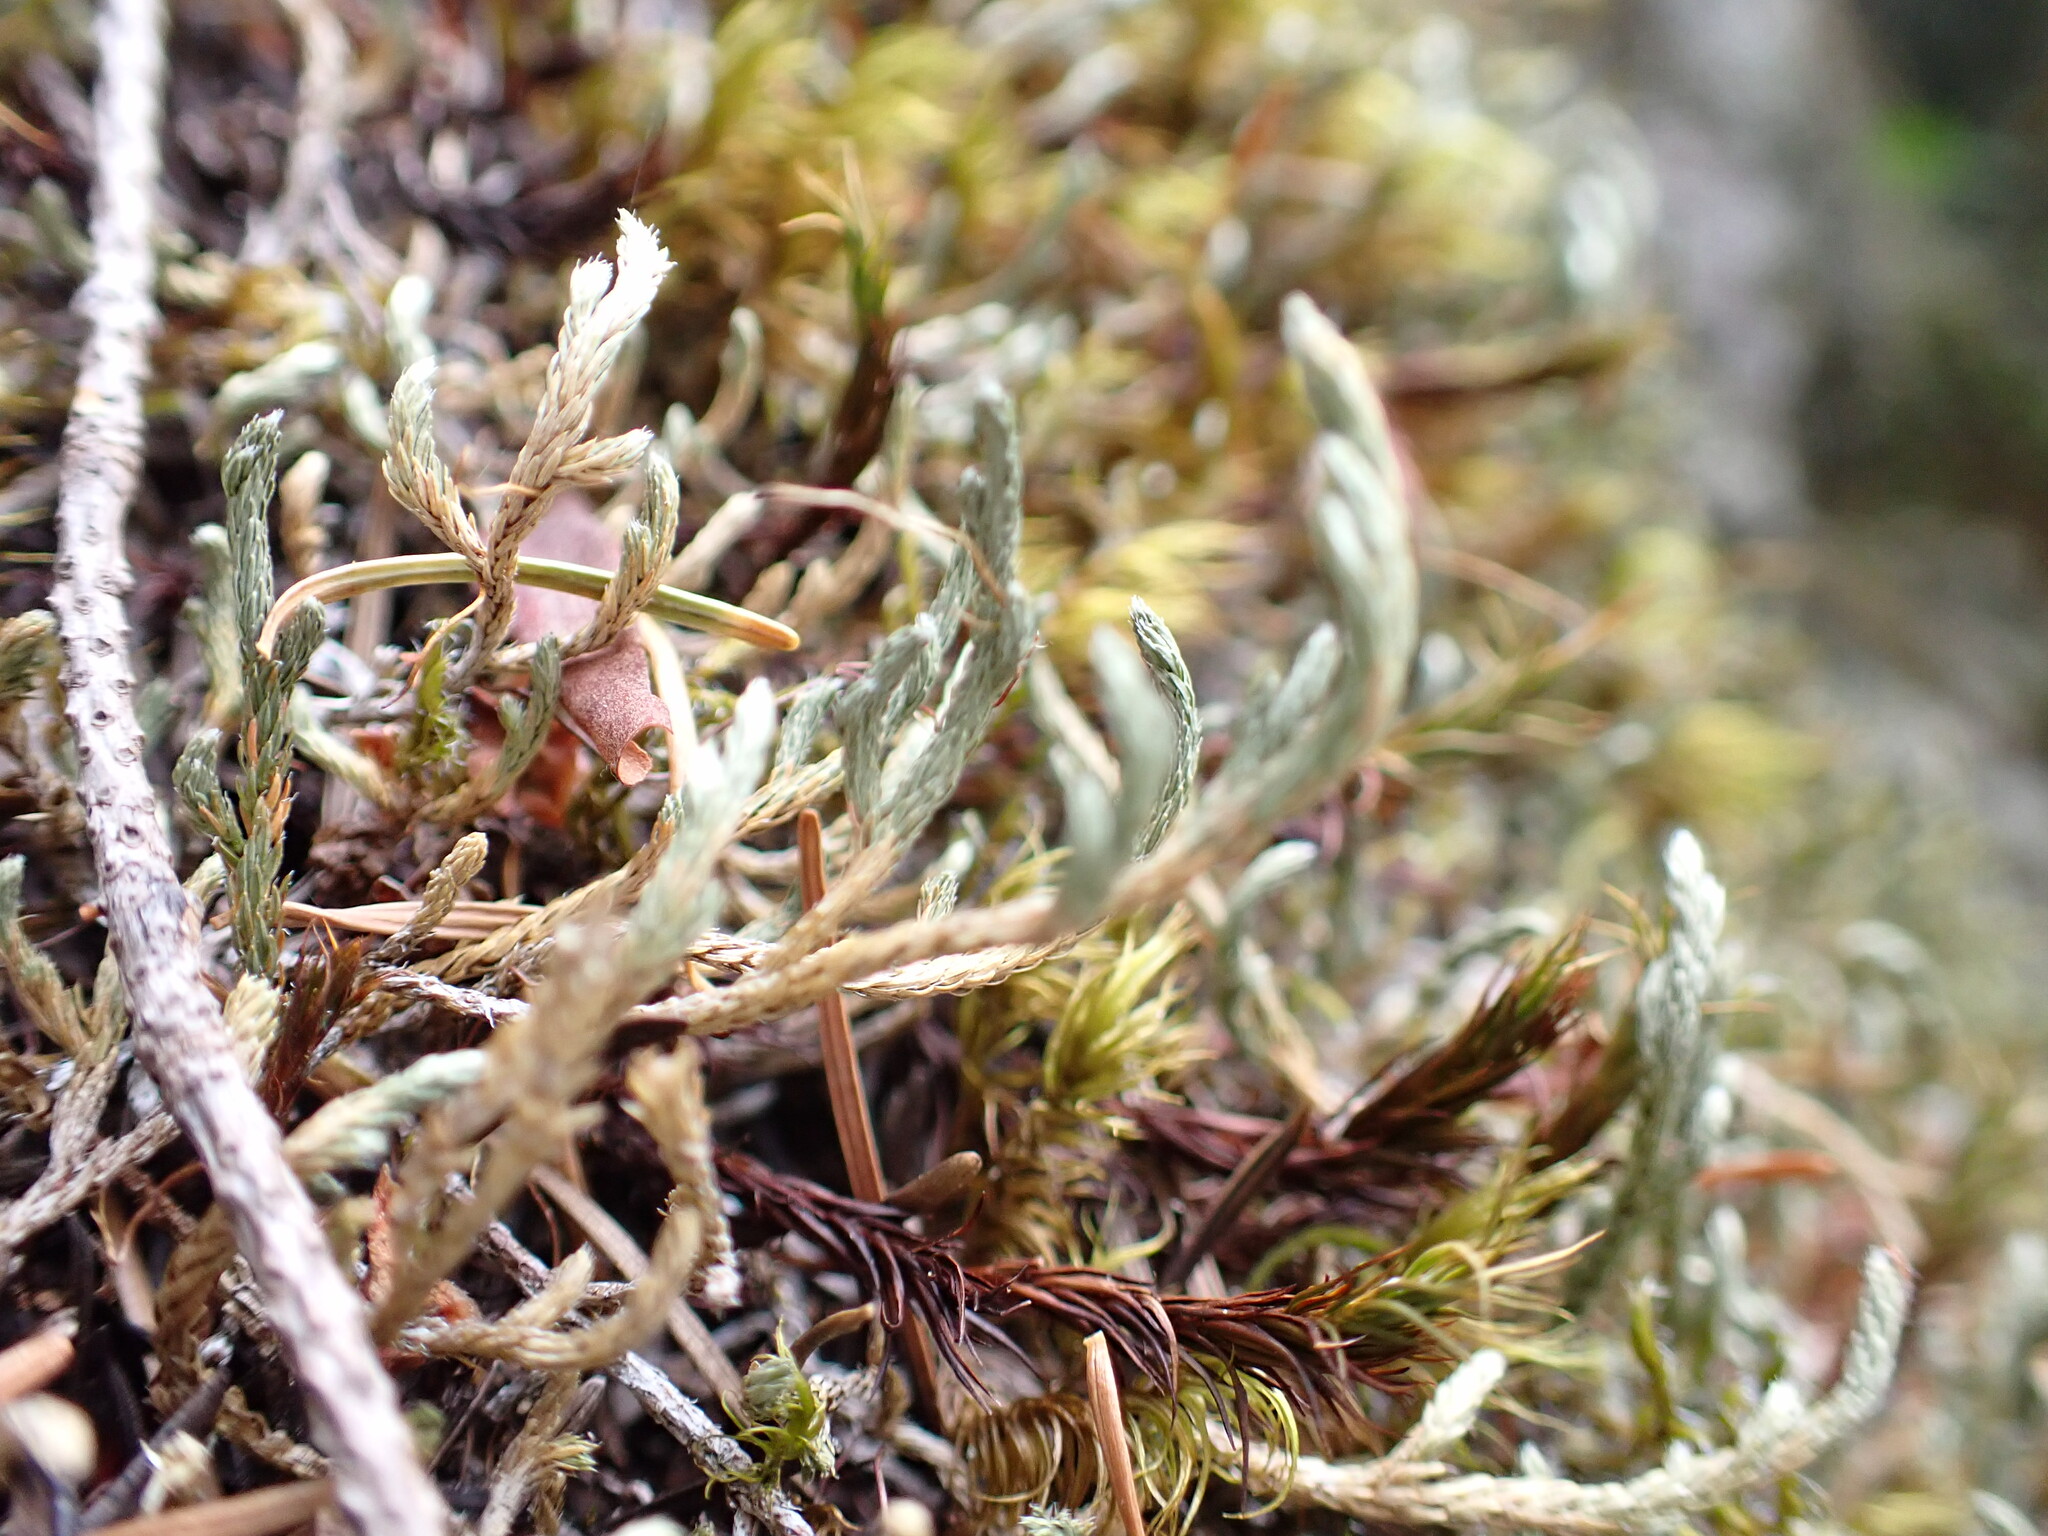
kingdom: Plantae
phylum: Tracheophyta
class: Lycopodiopsida
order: Selaginellales
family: Selaginellaceae
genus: Selaginella
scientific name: Selaginella wallacei
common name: Wallace's selaginella
